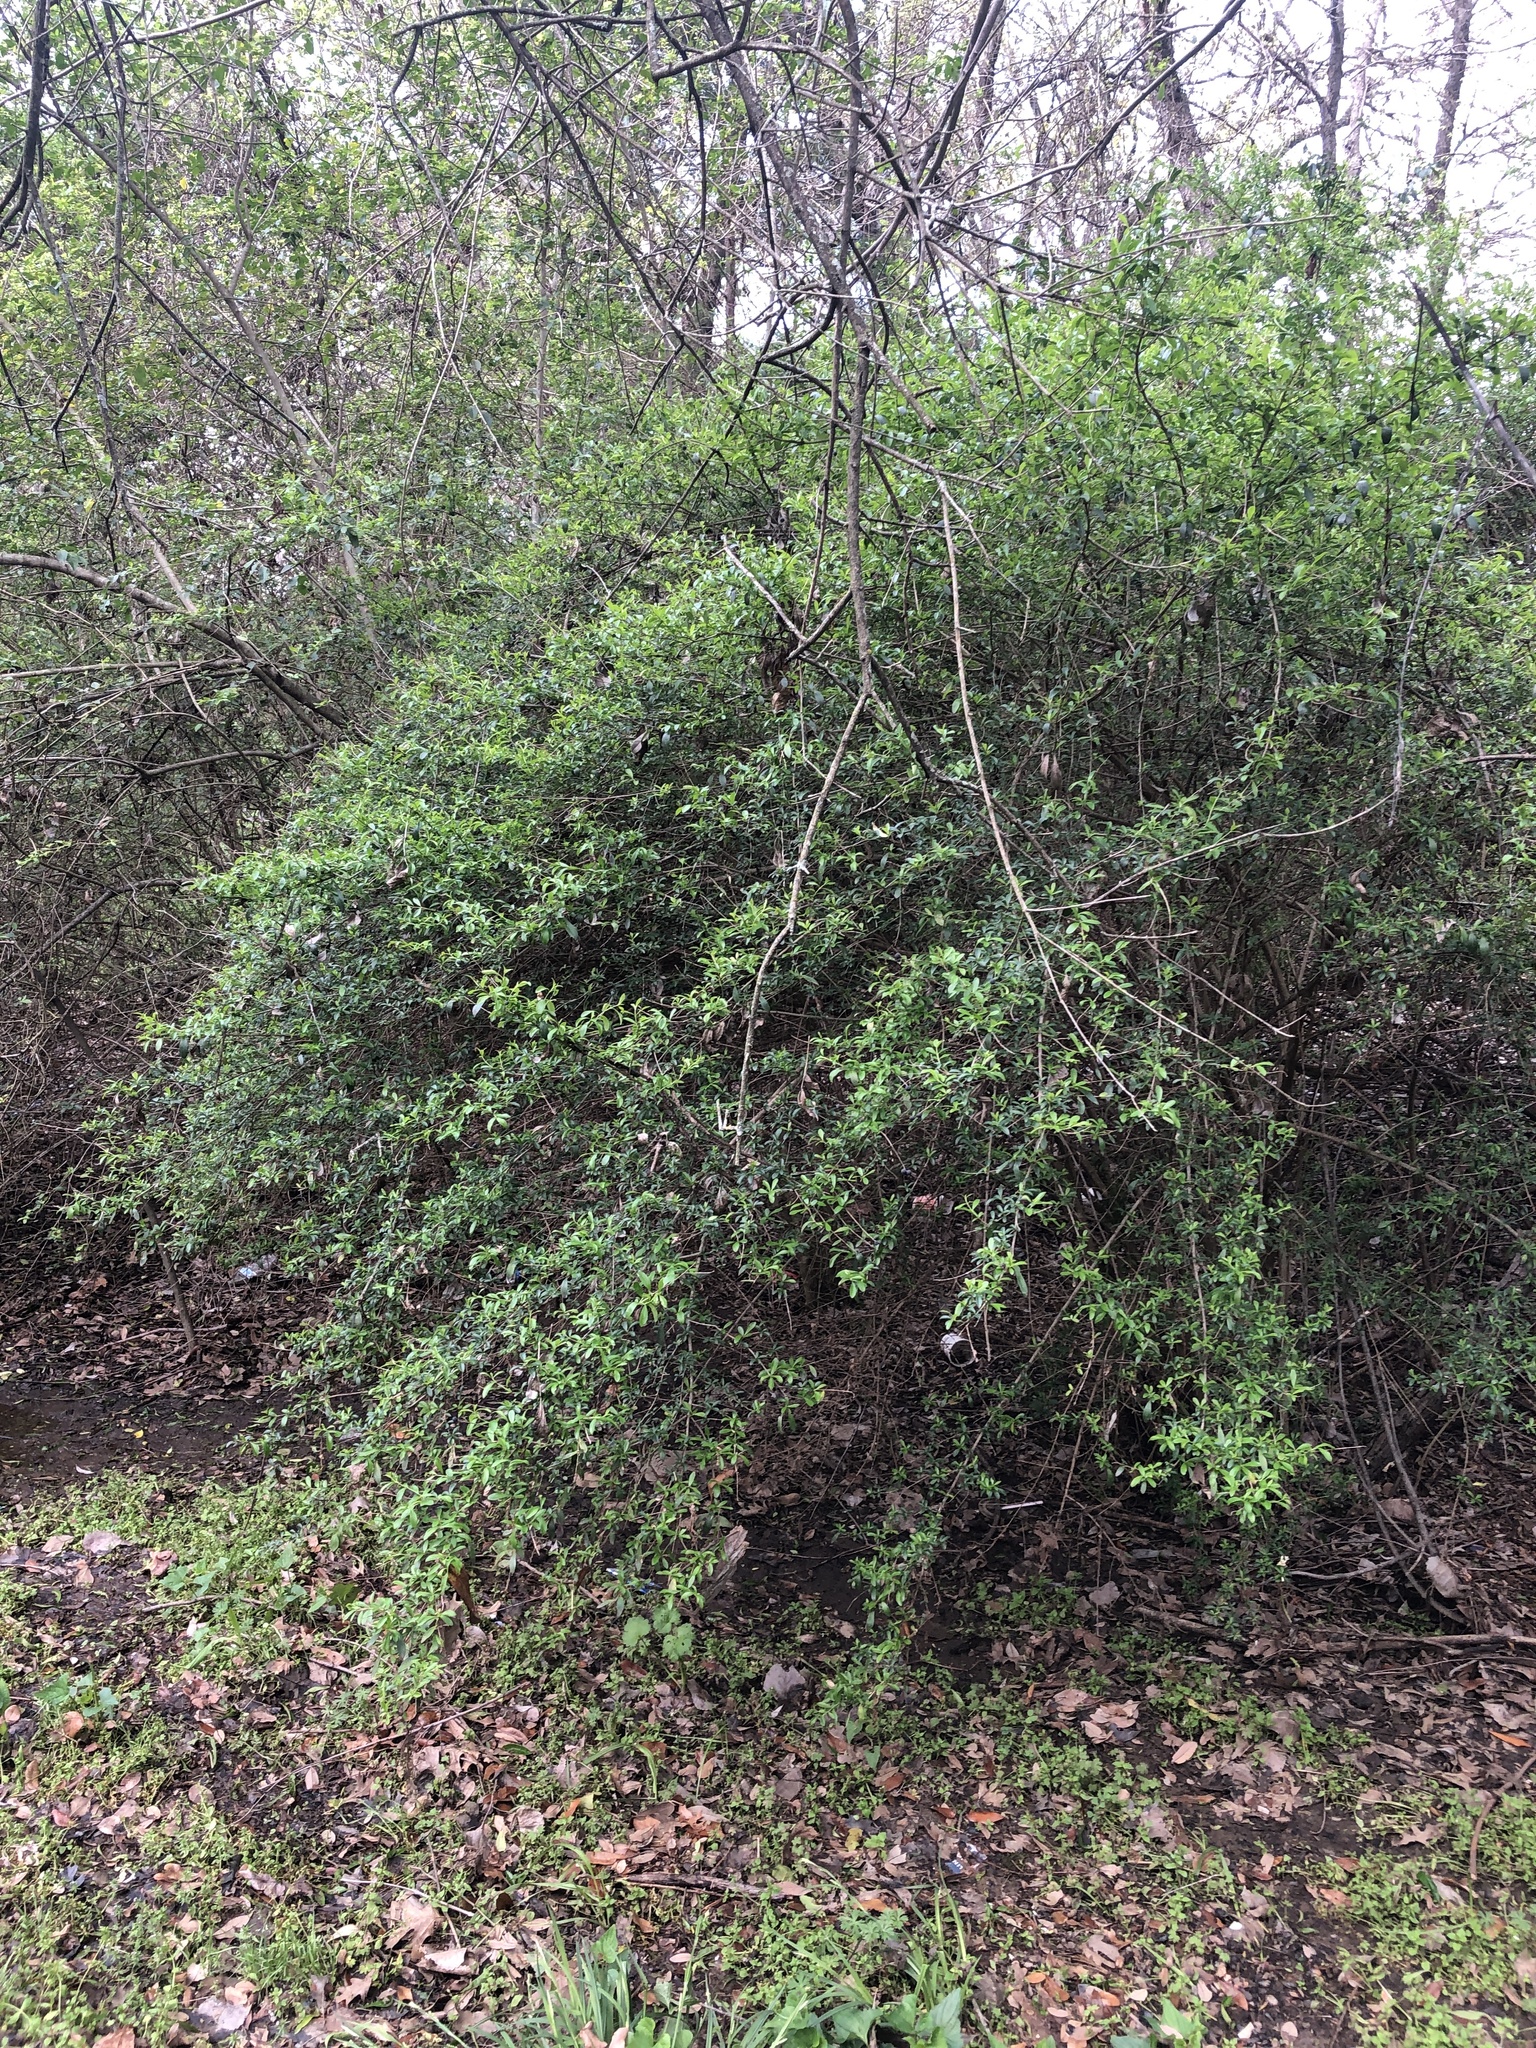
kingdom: Plantae
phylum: Tracheophyta
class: Magnoliopsida
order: Lamiales
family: Oleaceae
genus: Ligustrum
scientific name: Ligustrum quihoui
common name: Waxyleaf privet
